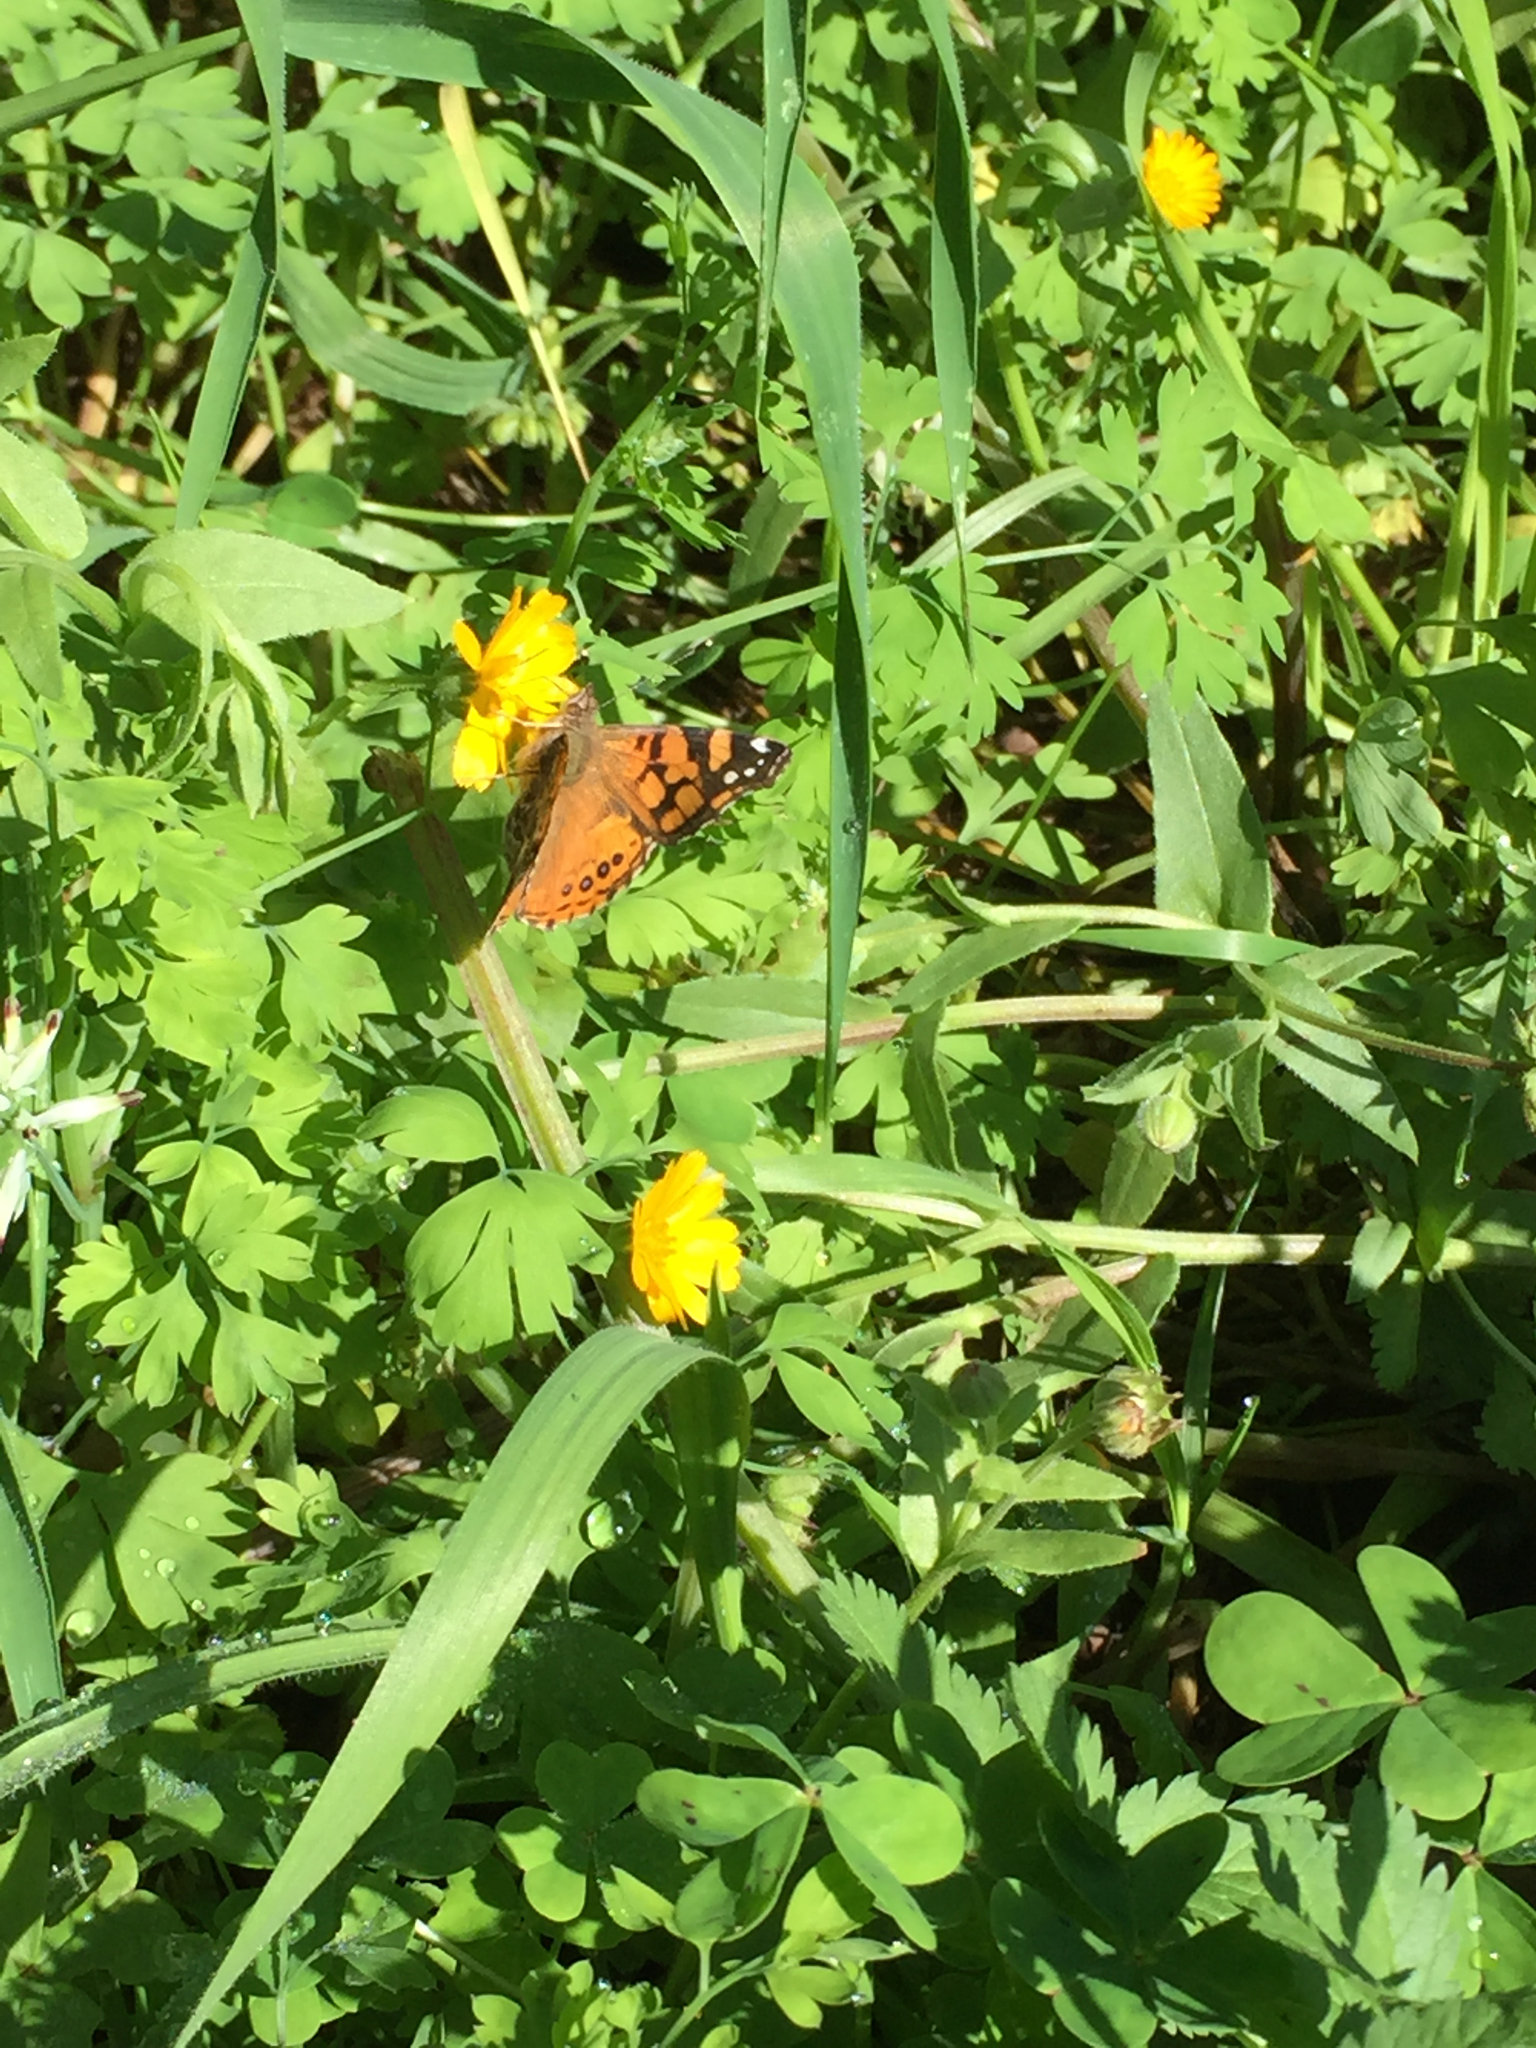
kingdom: Animalia
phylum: Arthropoda
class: Insecta
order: Lepidoptera
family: Nymphalidae
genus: Vanessa
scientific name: Vanessa annabella
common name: West coast lady
